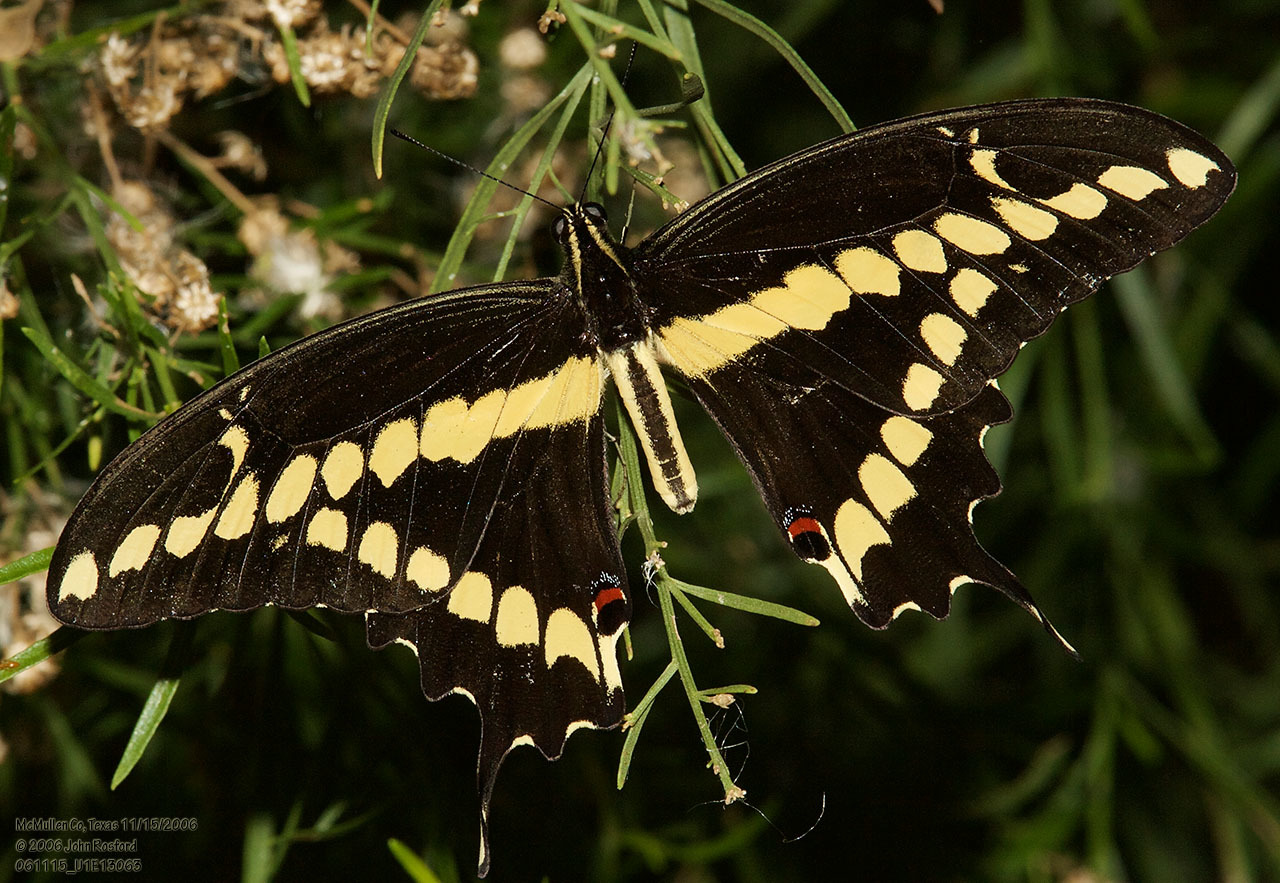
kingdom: Animalia
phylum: Arthropoda
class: Insecta
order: Lepidoptera
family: Papilionidae
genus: Papilio
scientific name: Papilio rumiko
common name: Western giant swallowtail
